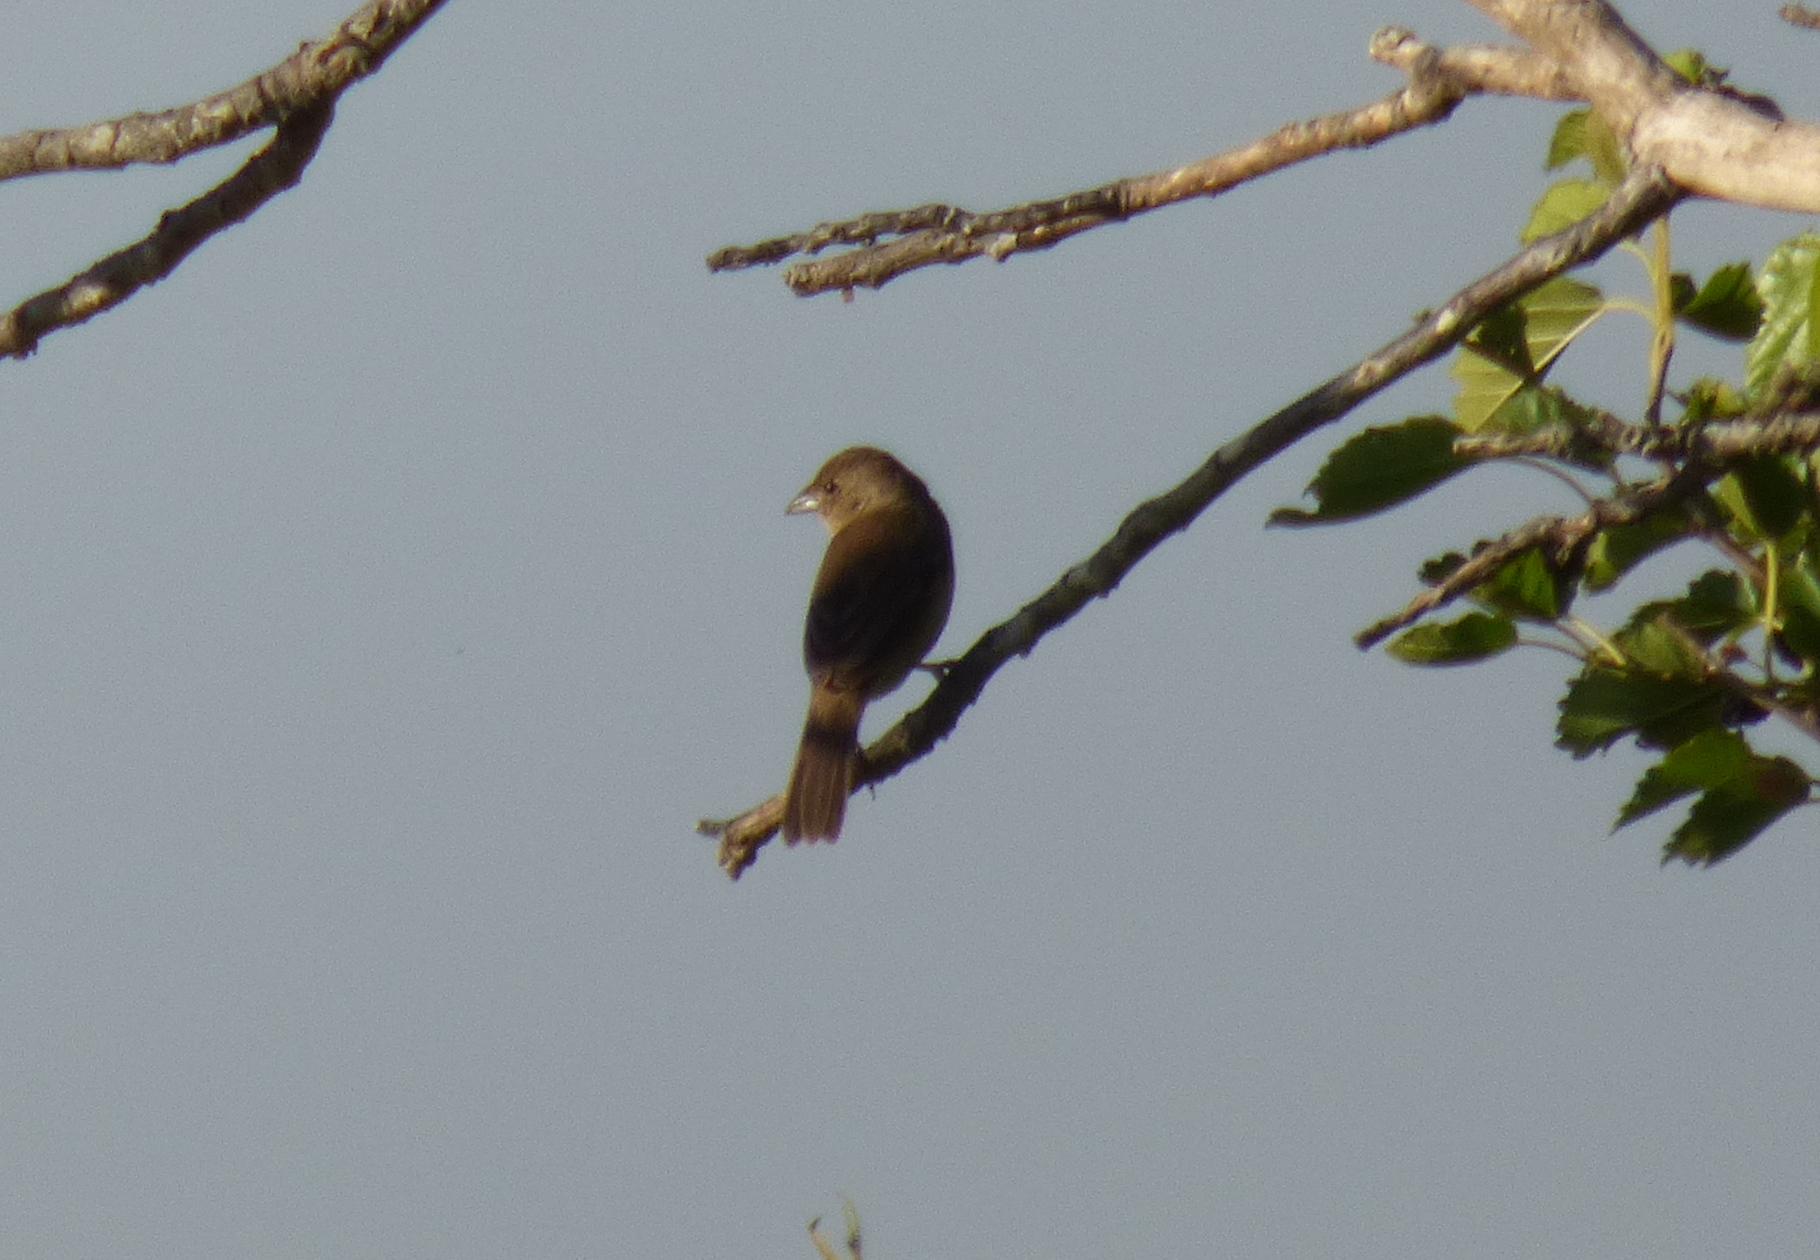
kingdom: Animalia
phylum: Chordata
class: Aves
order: Passeriformes
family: Icteridae
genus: Molothrus
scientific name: Molothrus bonariensis
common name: Shiny cowbird
